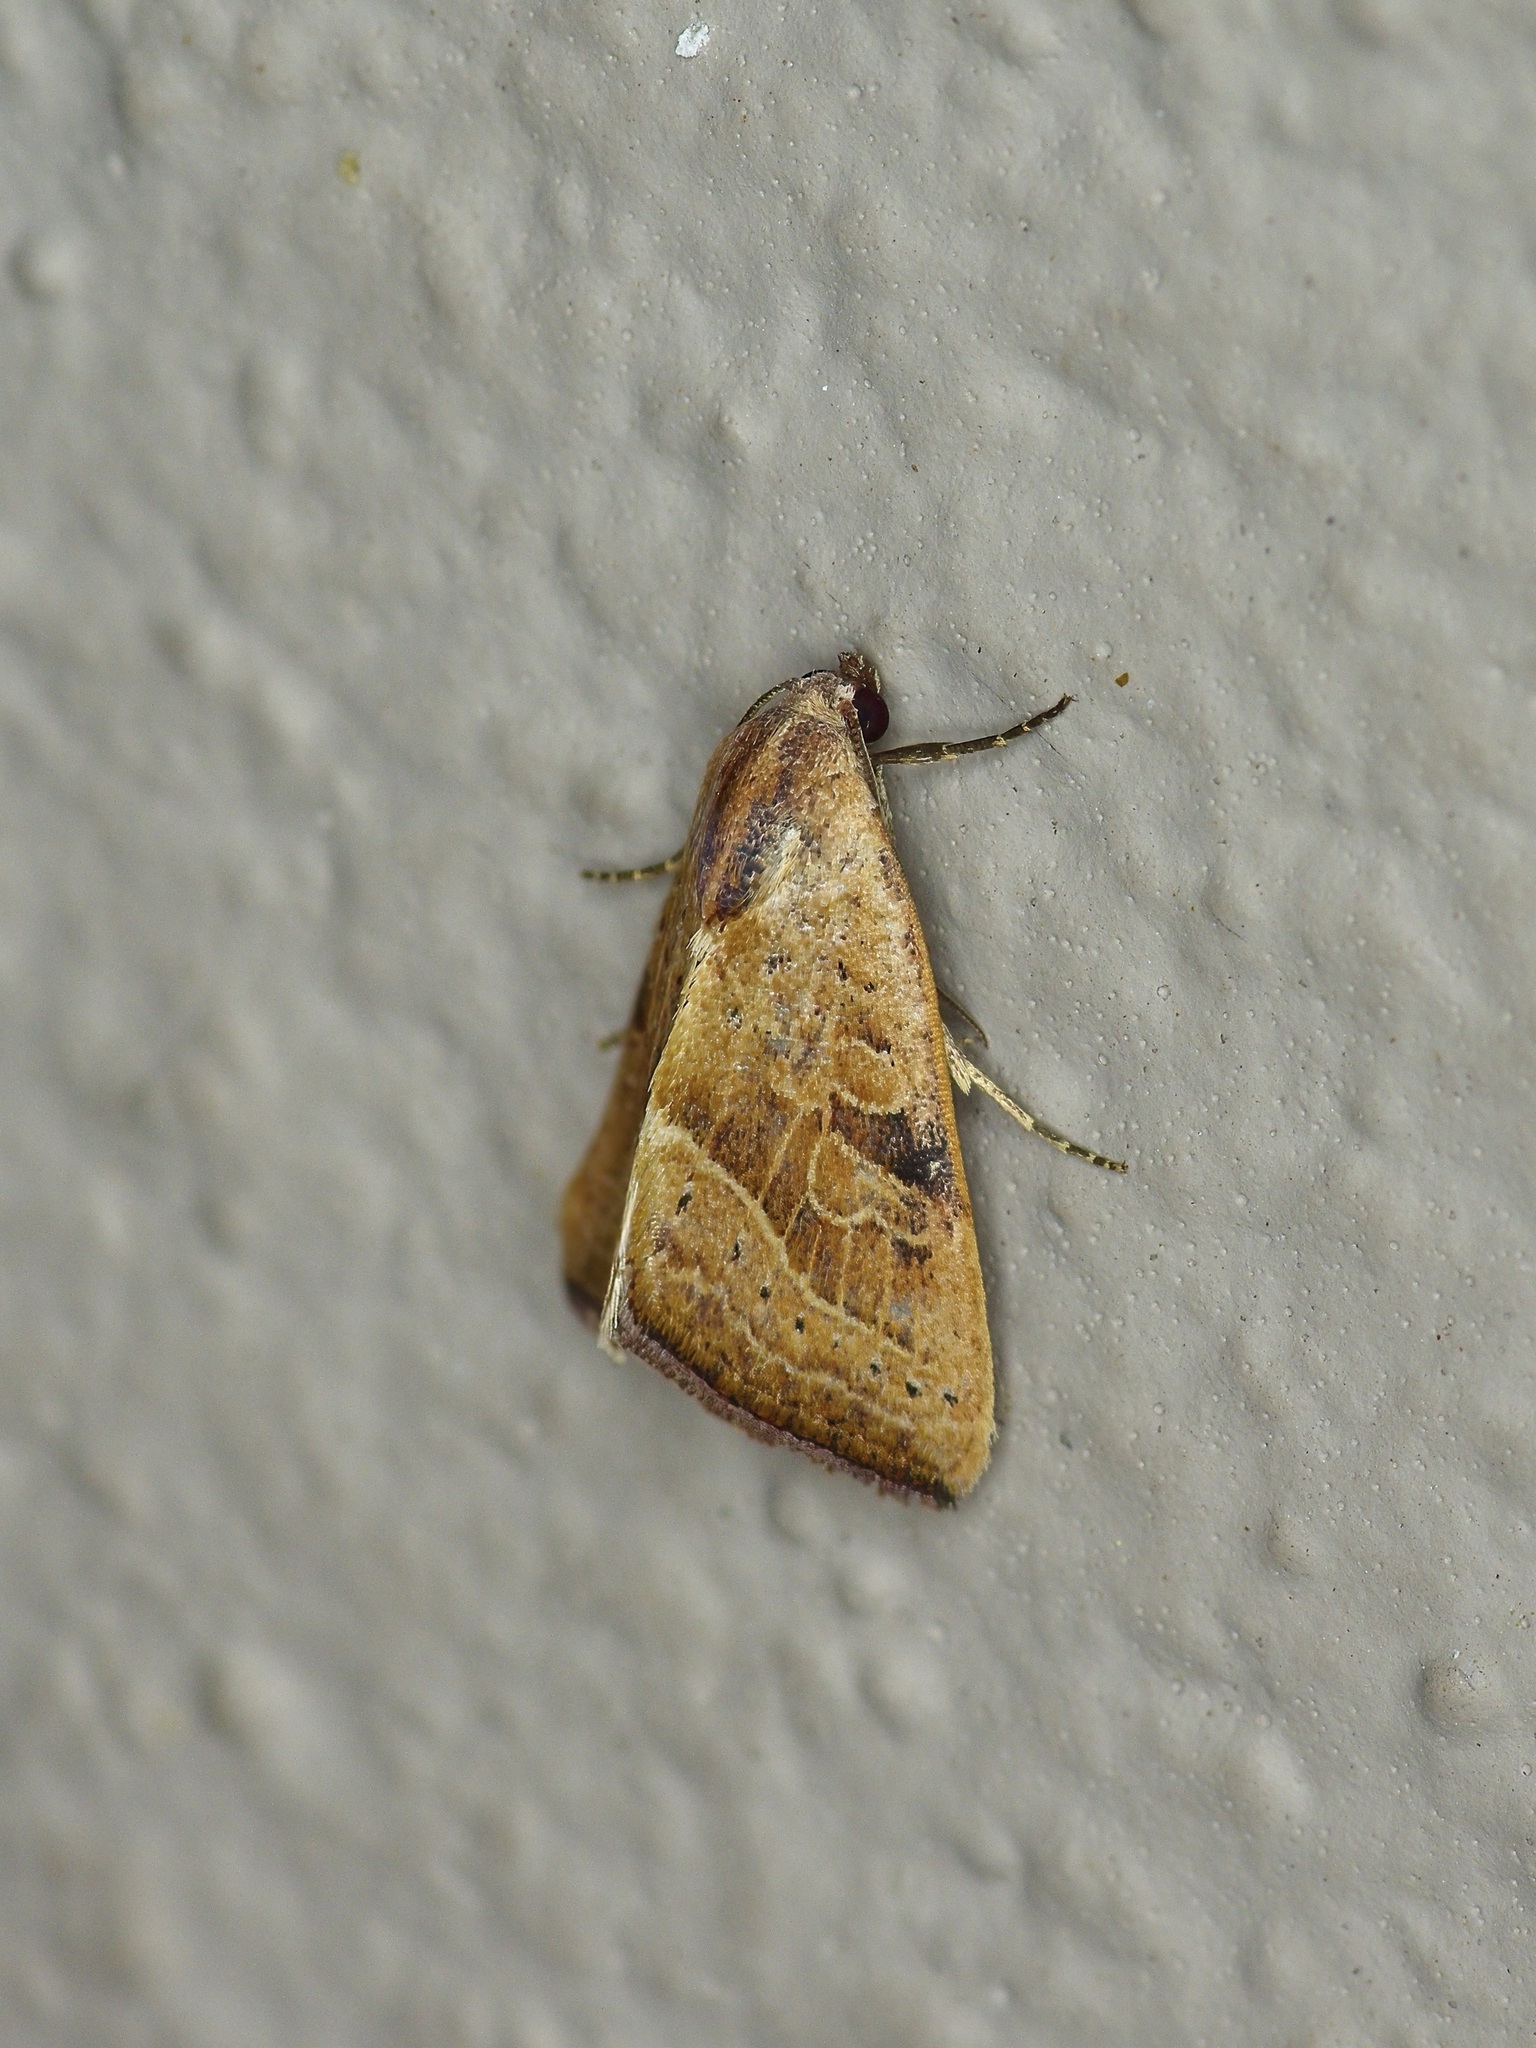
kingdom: Animalia
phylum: Arthropoda
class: Insecta
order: Lepidoptera
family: Noctuidae
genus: Galgula
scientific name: Galgula partita
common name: Wedgeling
